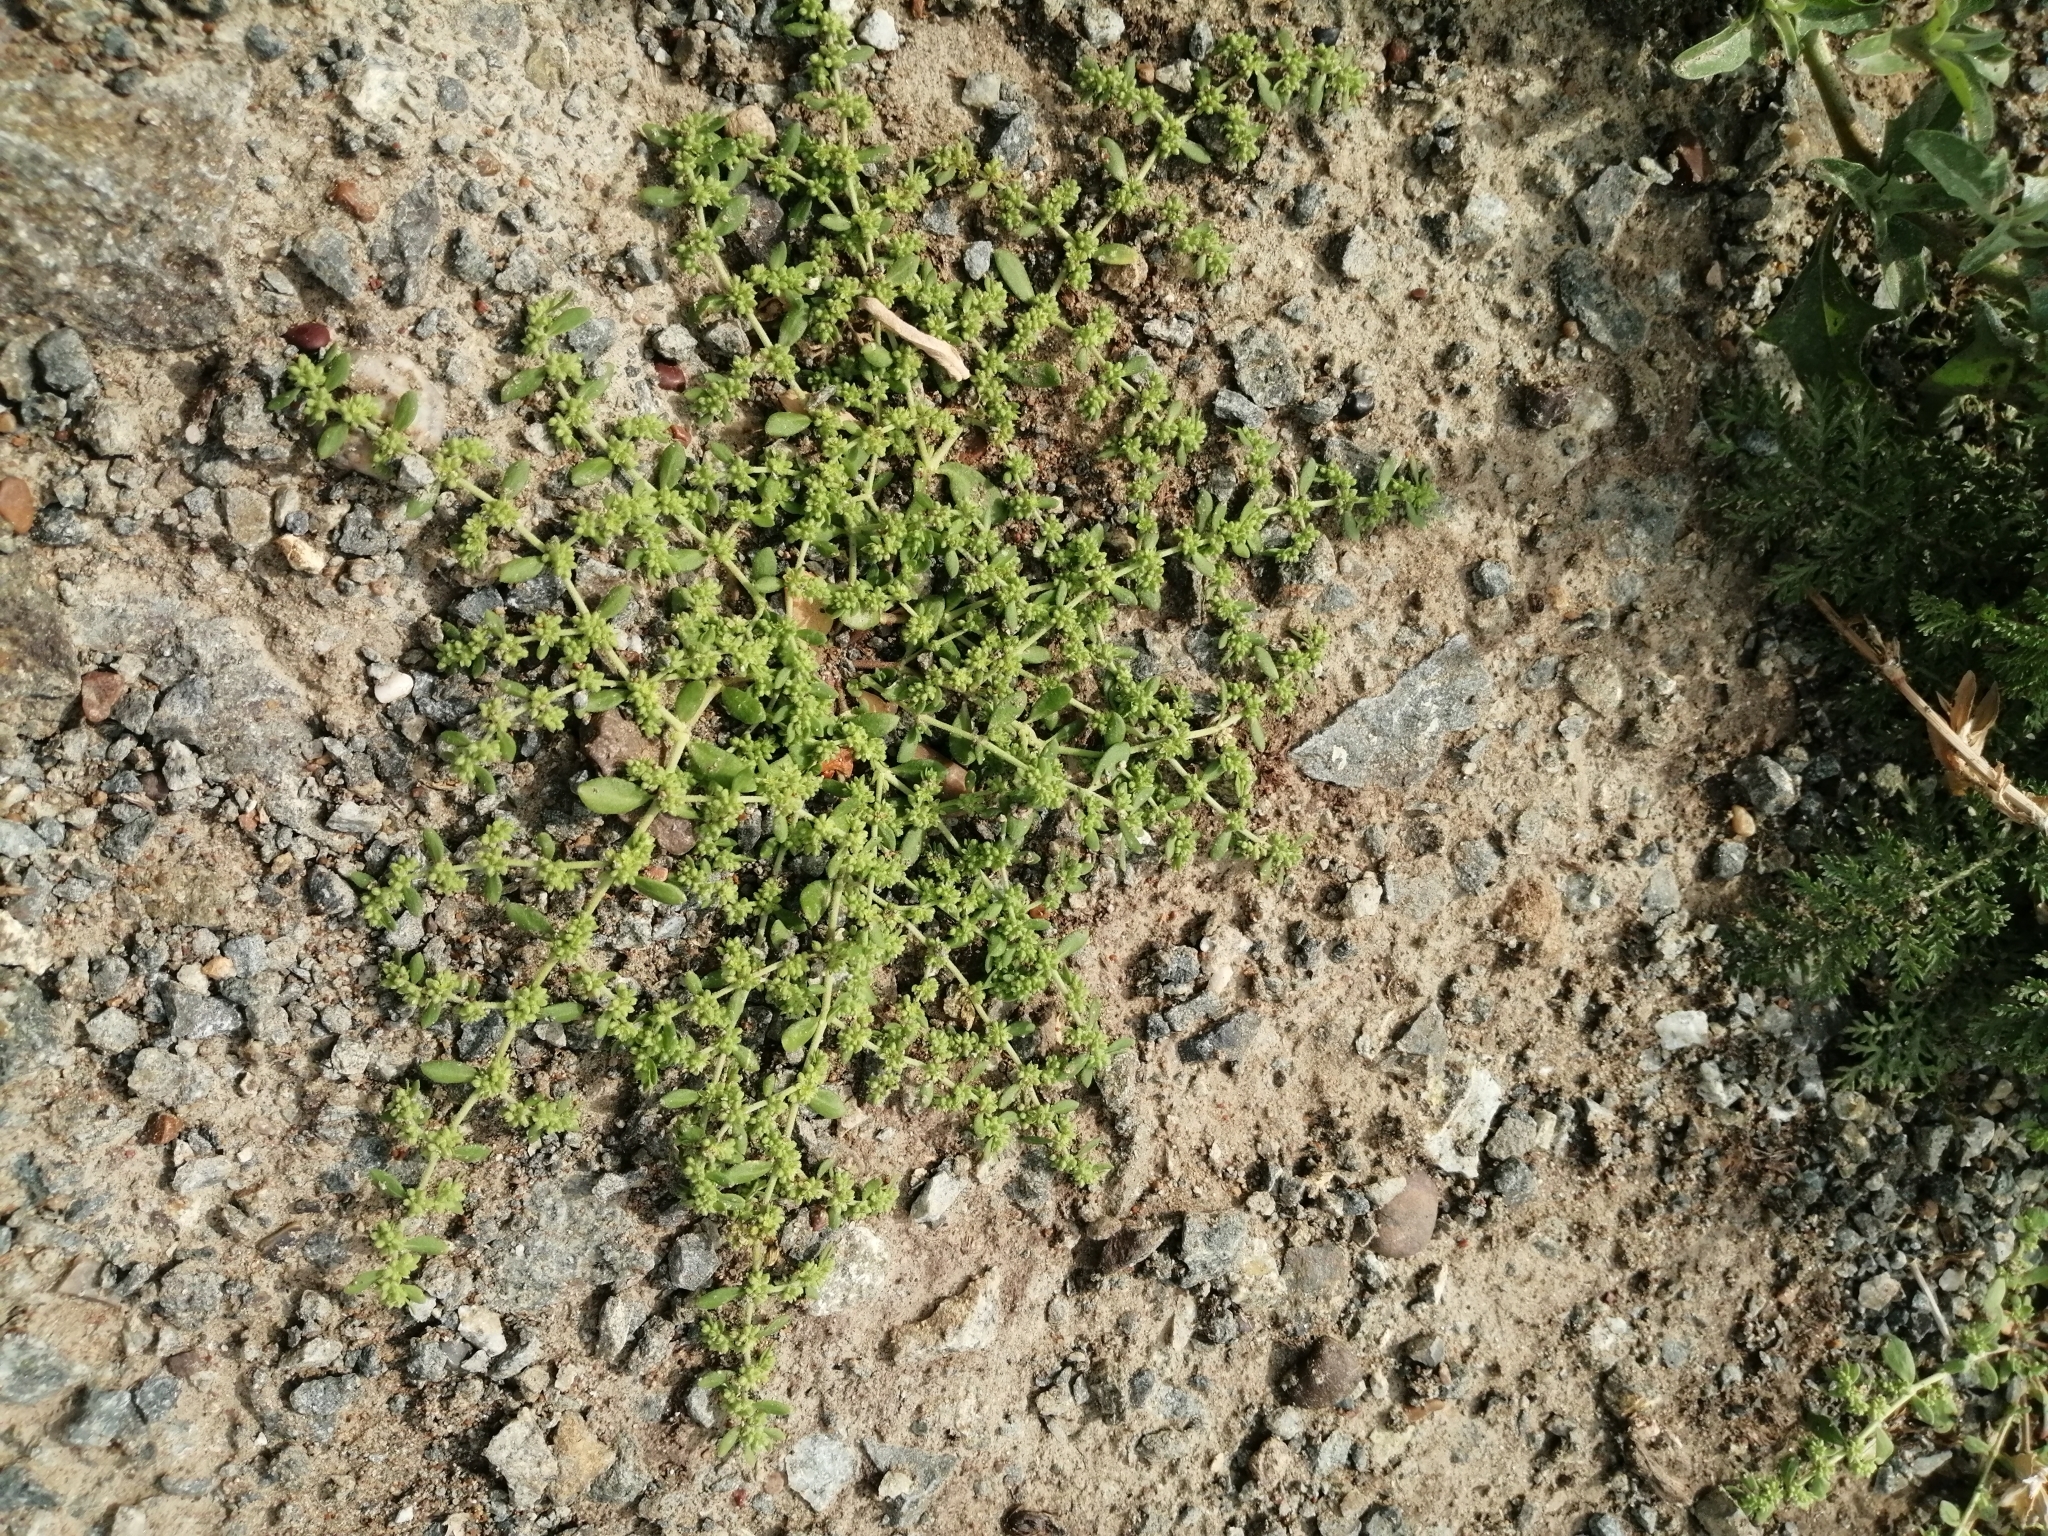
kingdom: Plantae
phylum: Tracheophyta
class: Magnoliopsida
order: Caryophyllales
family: Caryophyllaceae
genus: Herniaria
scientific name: Herniaria polygama
